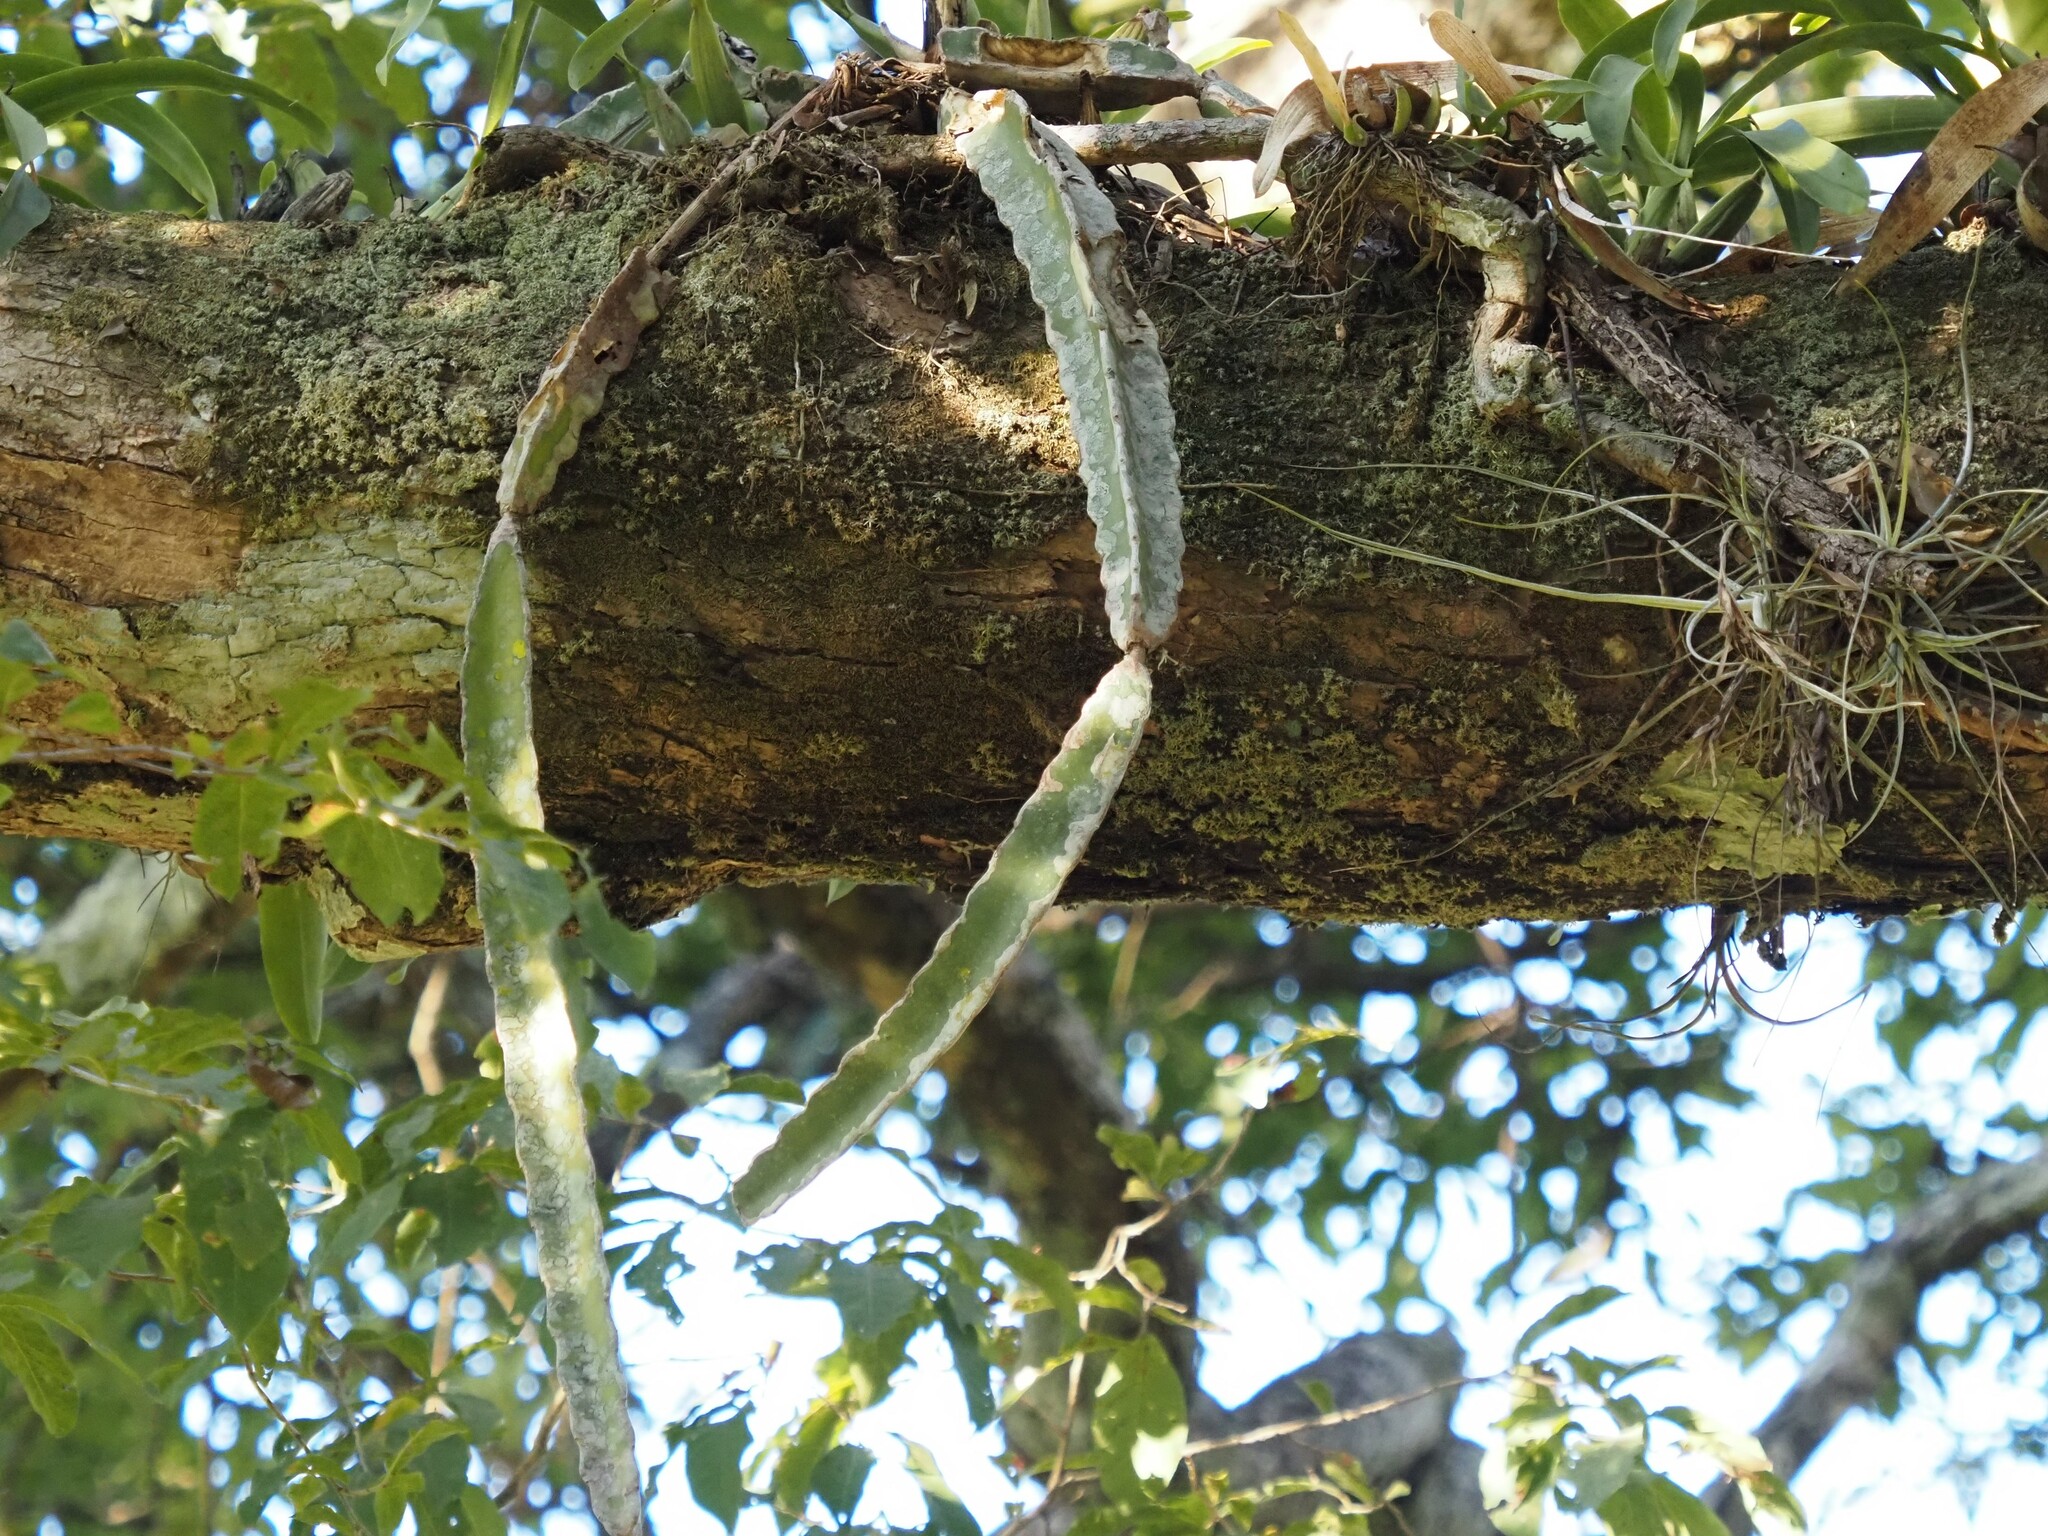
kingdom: Plantae
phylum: Tracheophyta
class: Magnoliopsida
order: Caryophyllales
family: Cactaceae
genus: Selenicereus
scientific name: Selenicereus ocamponis
